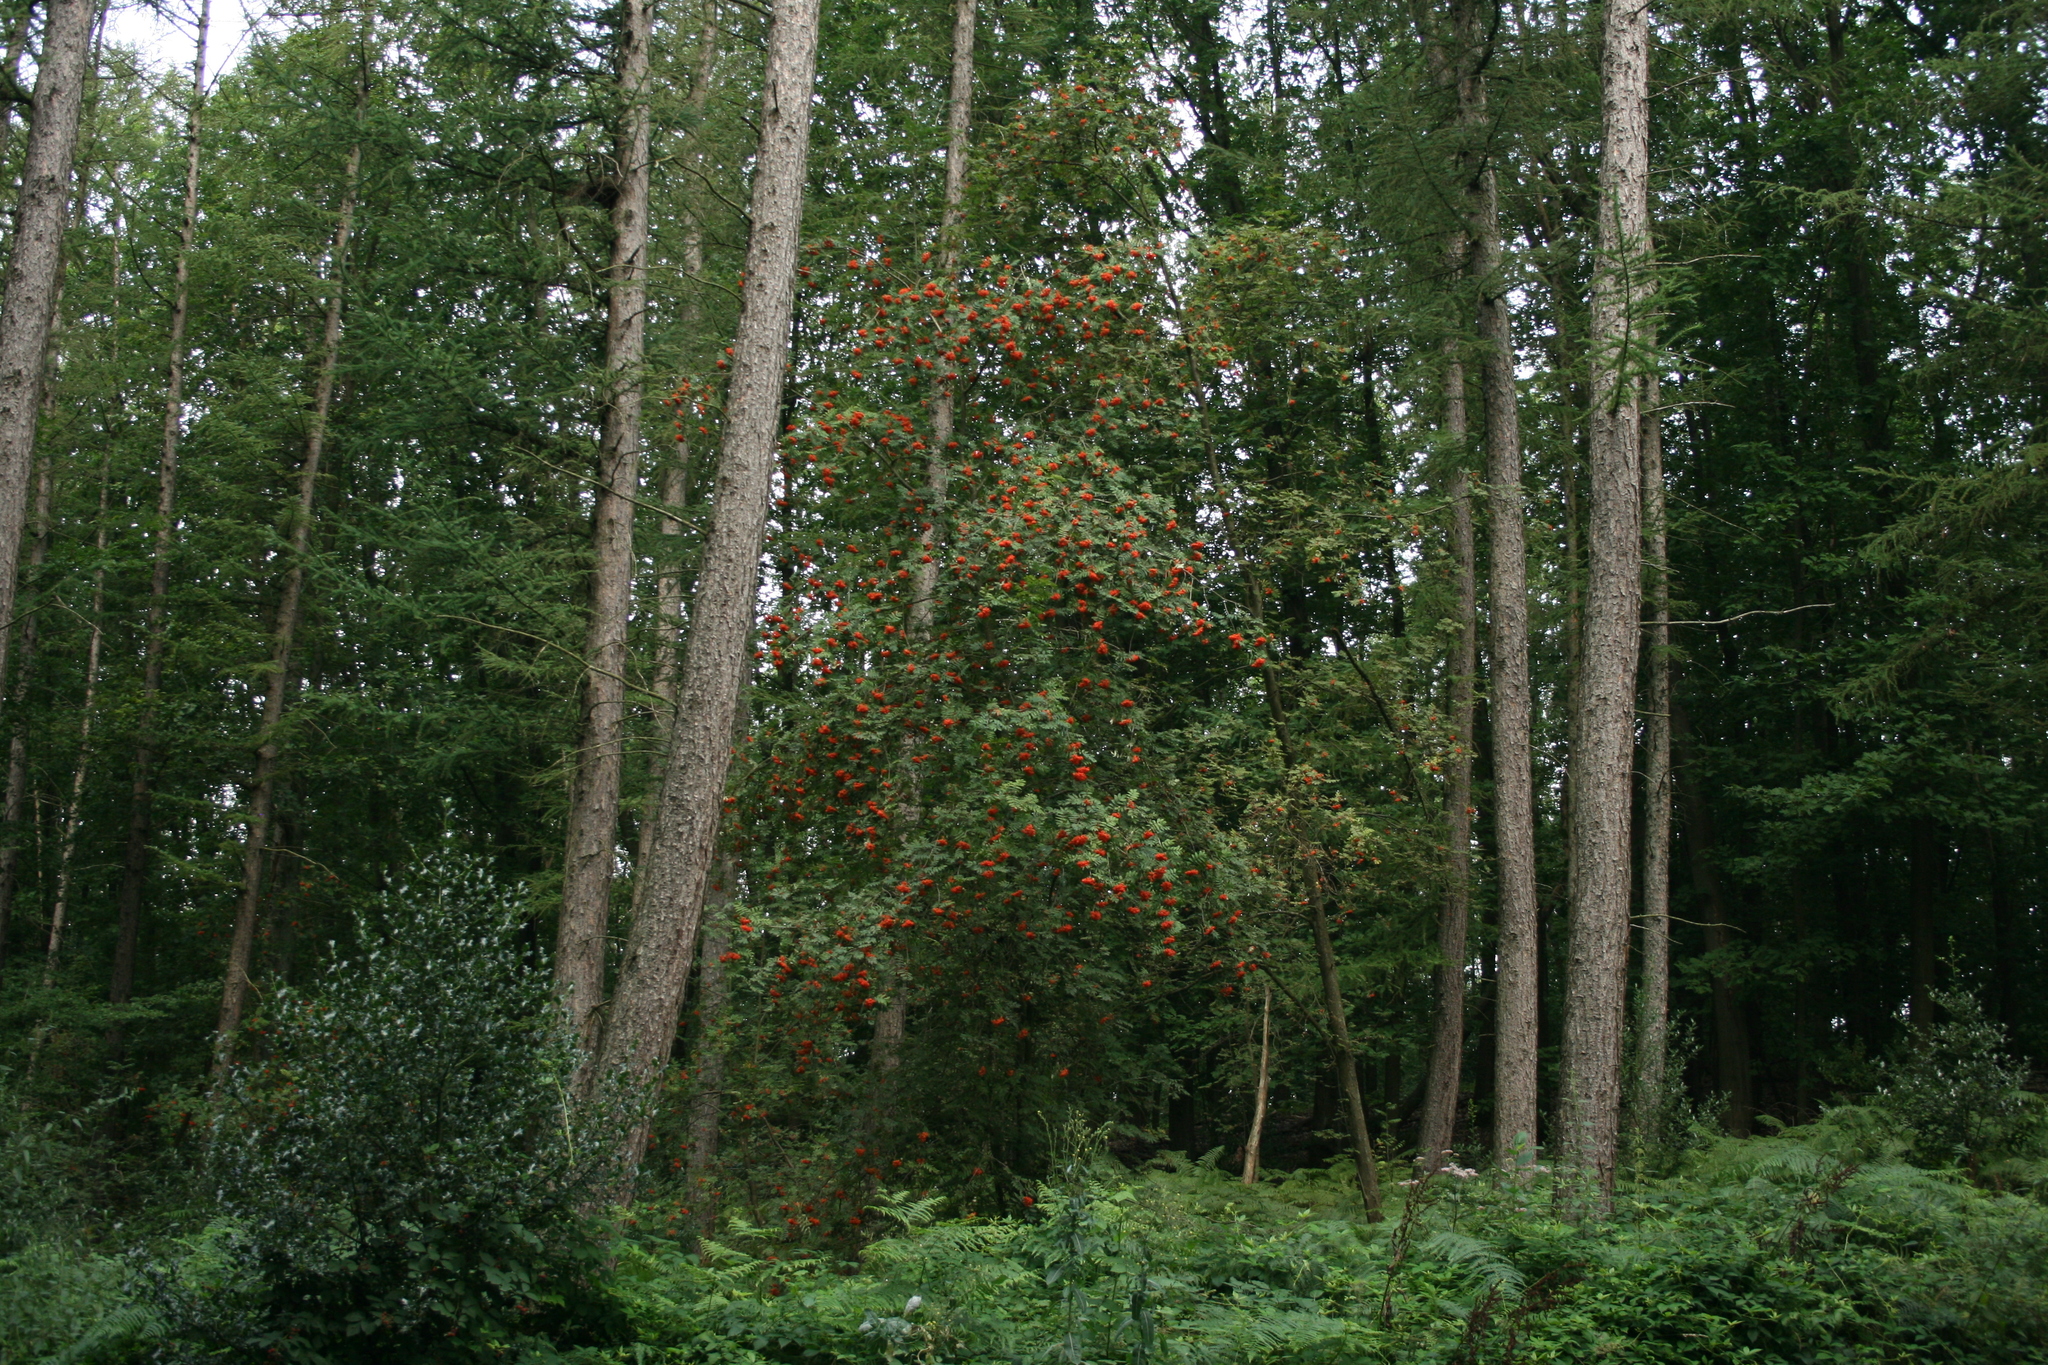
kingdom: Plantae
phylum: Tracheophyta
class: Magnoliopsida
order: Rosales
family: Rosaceae
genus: Sorbus
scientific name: Sorbus aucuparia
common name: Rowan
